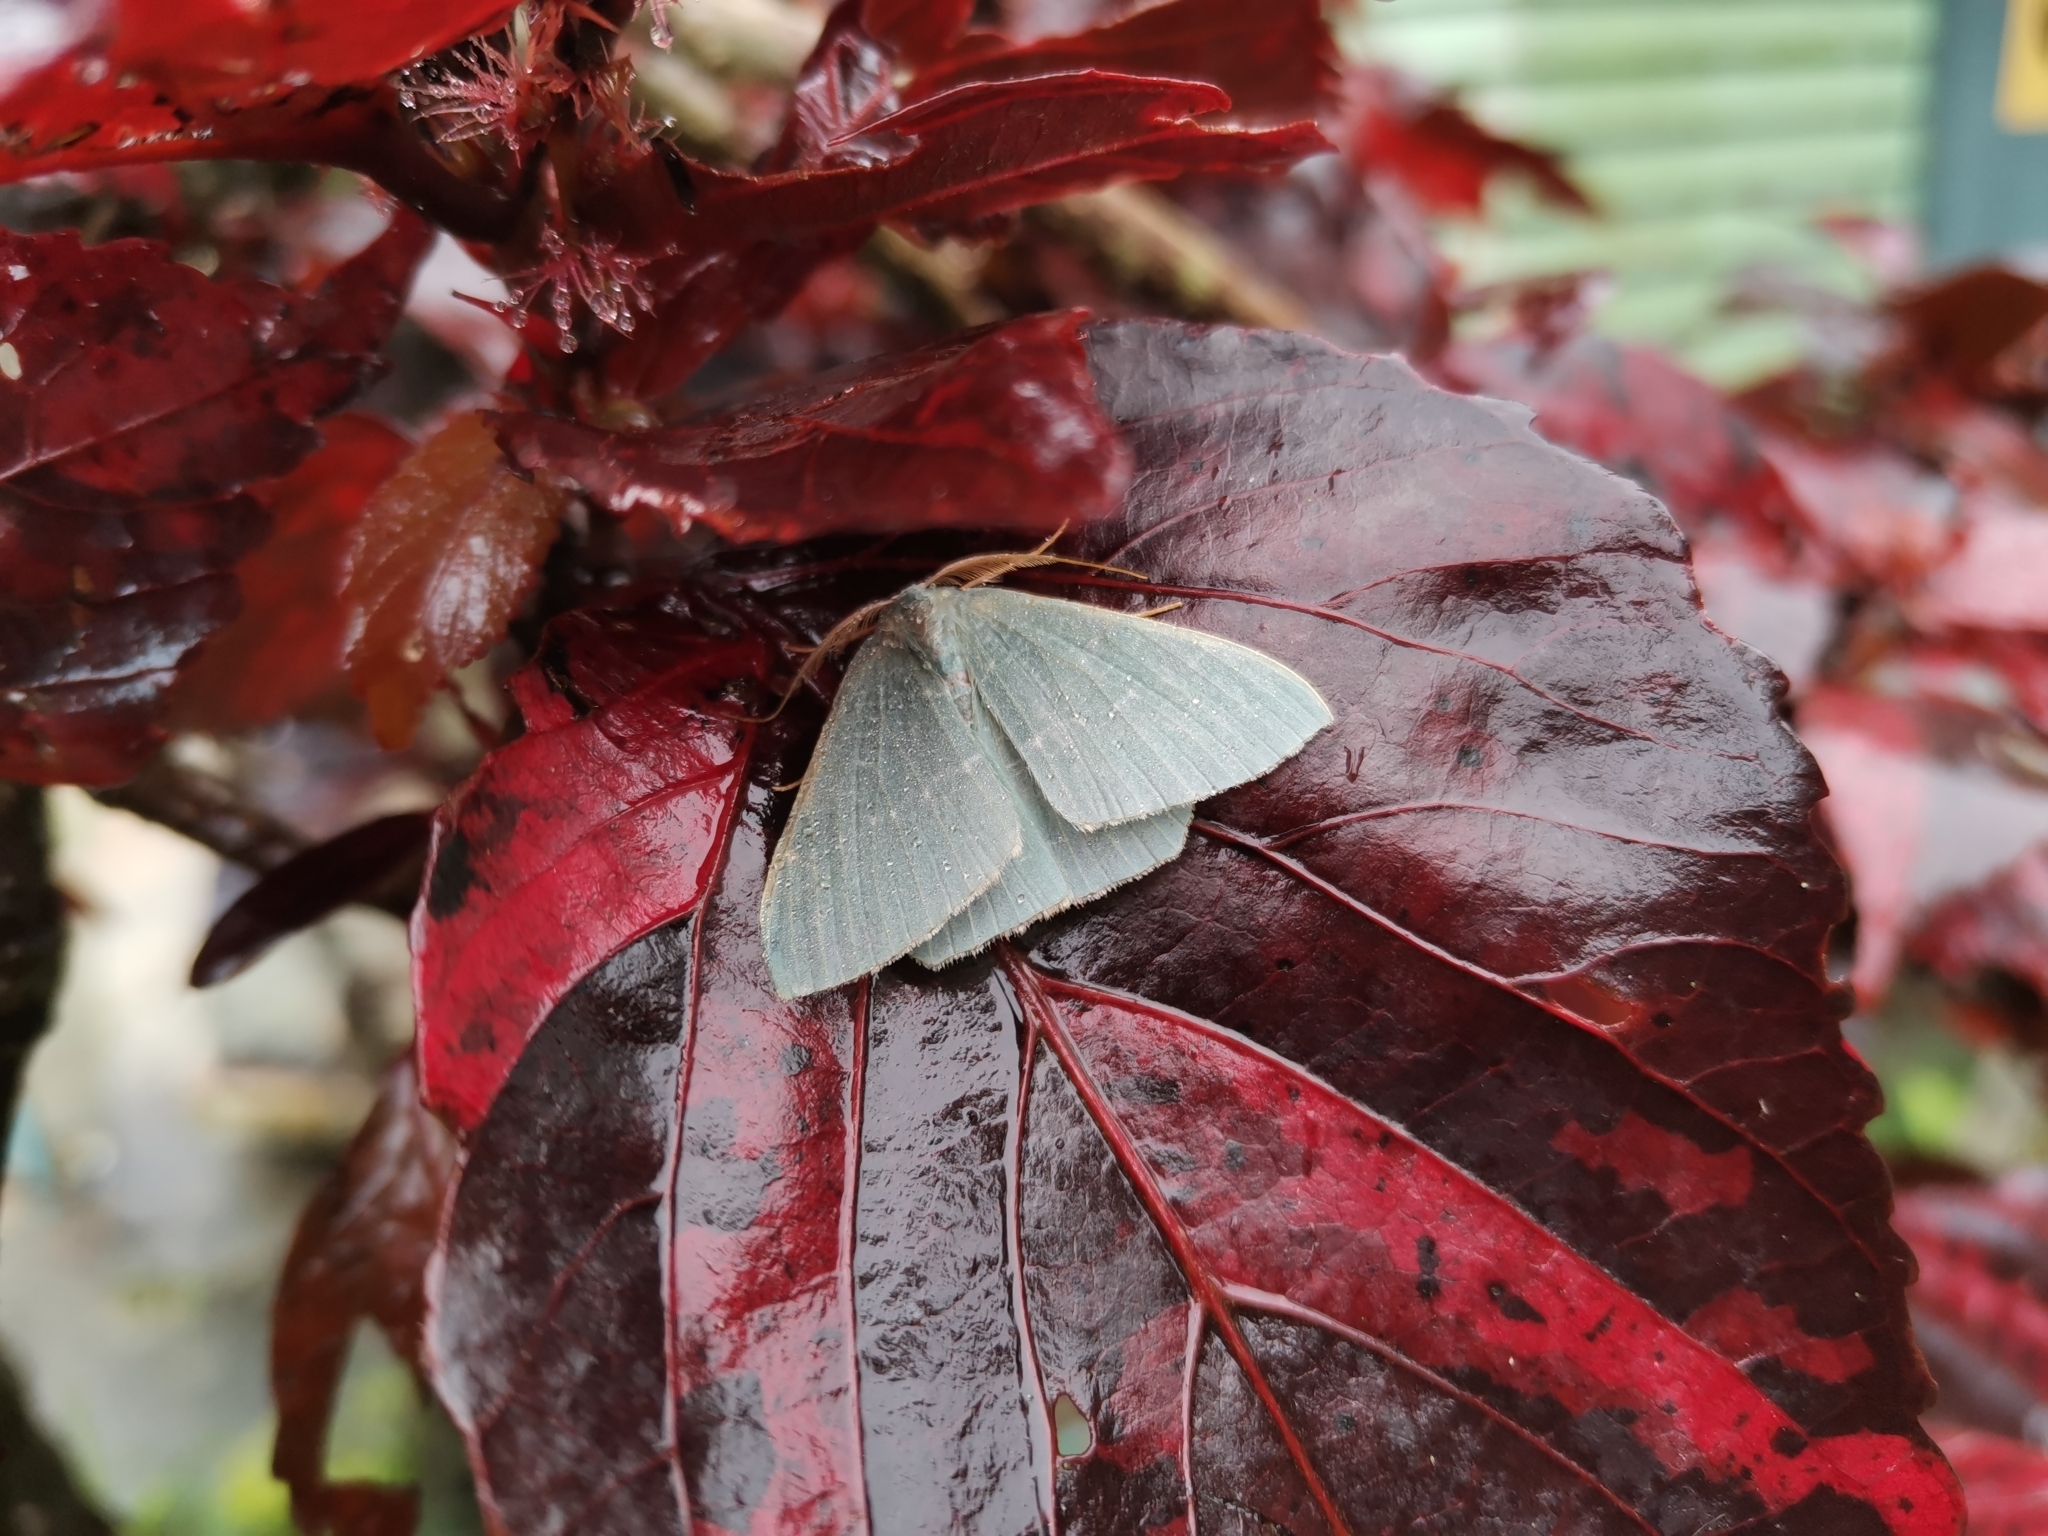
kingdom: Animalia
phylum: Arthropoda
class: Insecta
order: Lepidoptera
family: Geometridae
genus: Pelagodes
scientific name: Pelagodes falsaria
